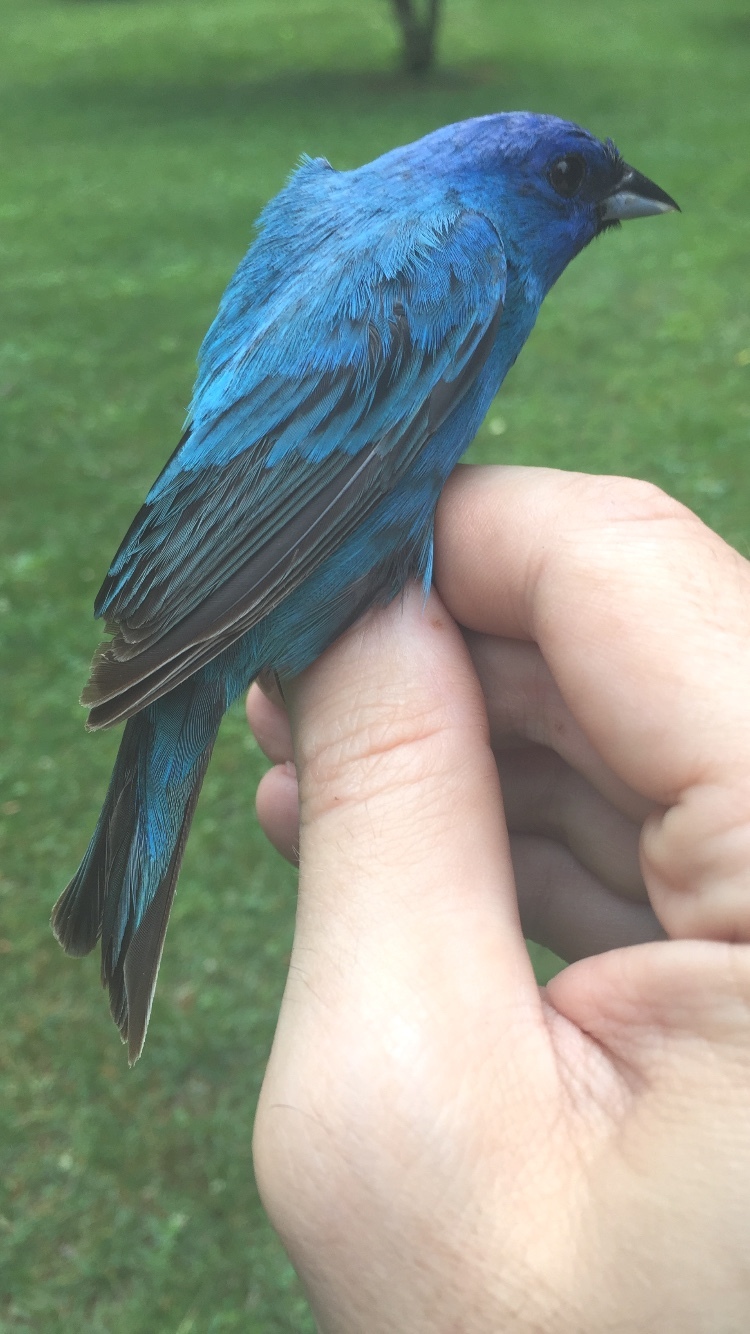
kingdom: Animalia
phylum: Chordata
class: Aves
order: Passeriformes
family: Cardinalidae
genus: Passerina
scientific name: Passerina cyanea
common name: Indigo bunting
